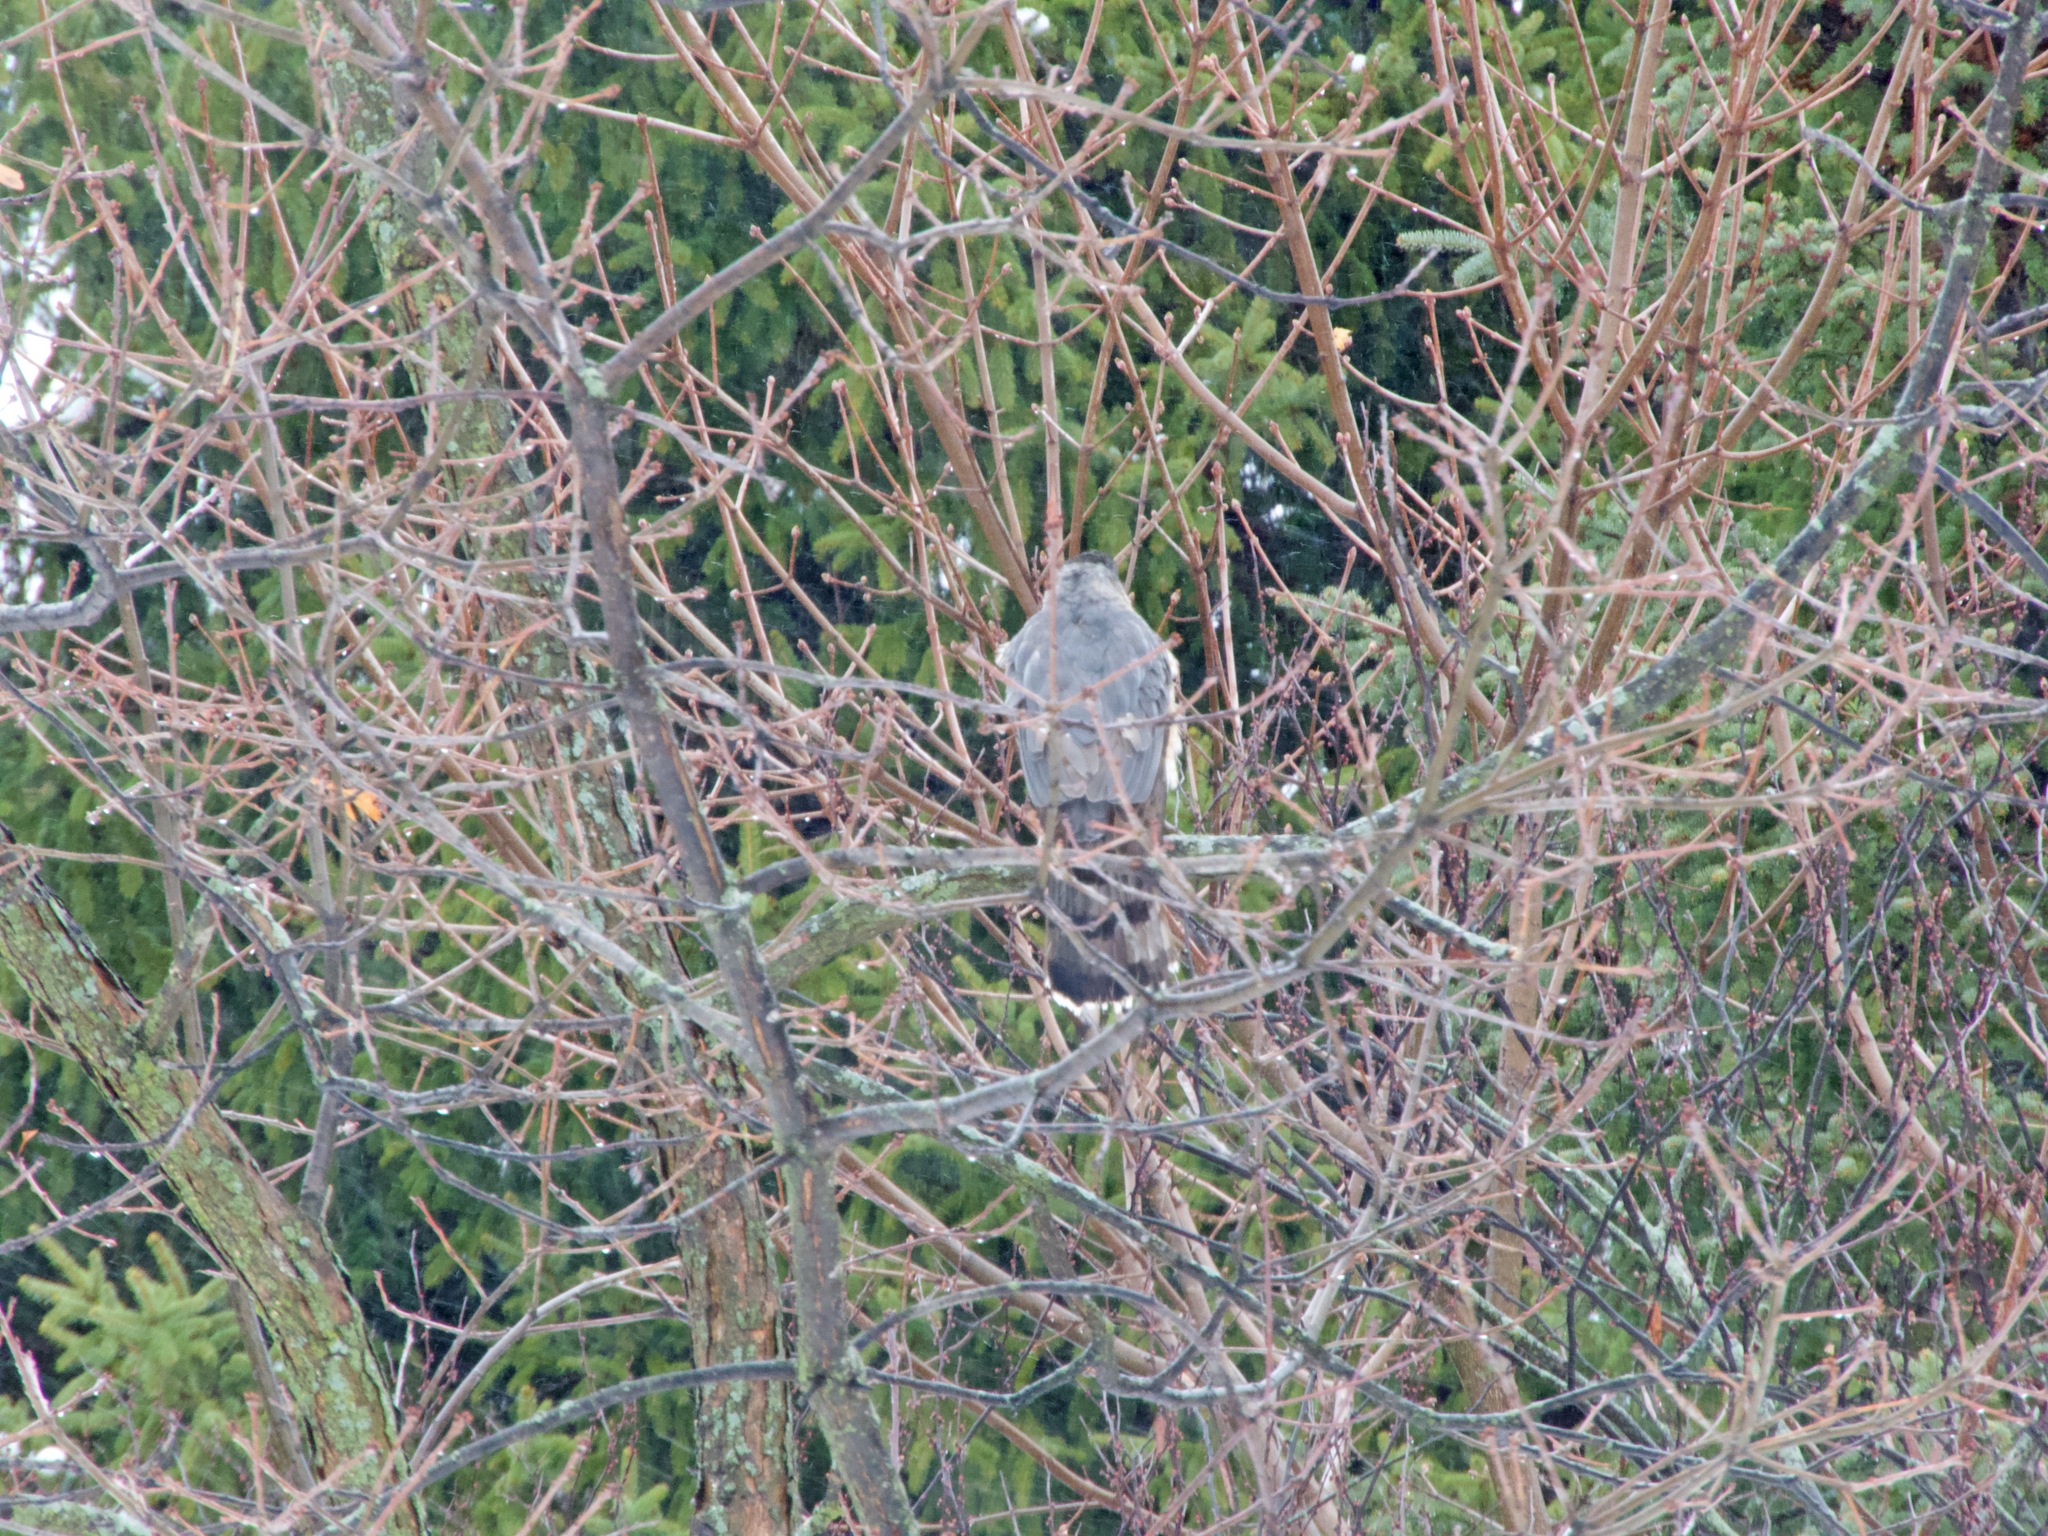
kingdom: Animalia
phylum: Chordata
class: Aves
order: Accipitriformes
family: Accipitridae
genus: Accipiter
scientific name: Accipiter cooperii
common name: Cooper's hawk
